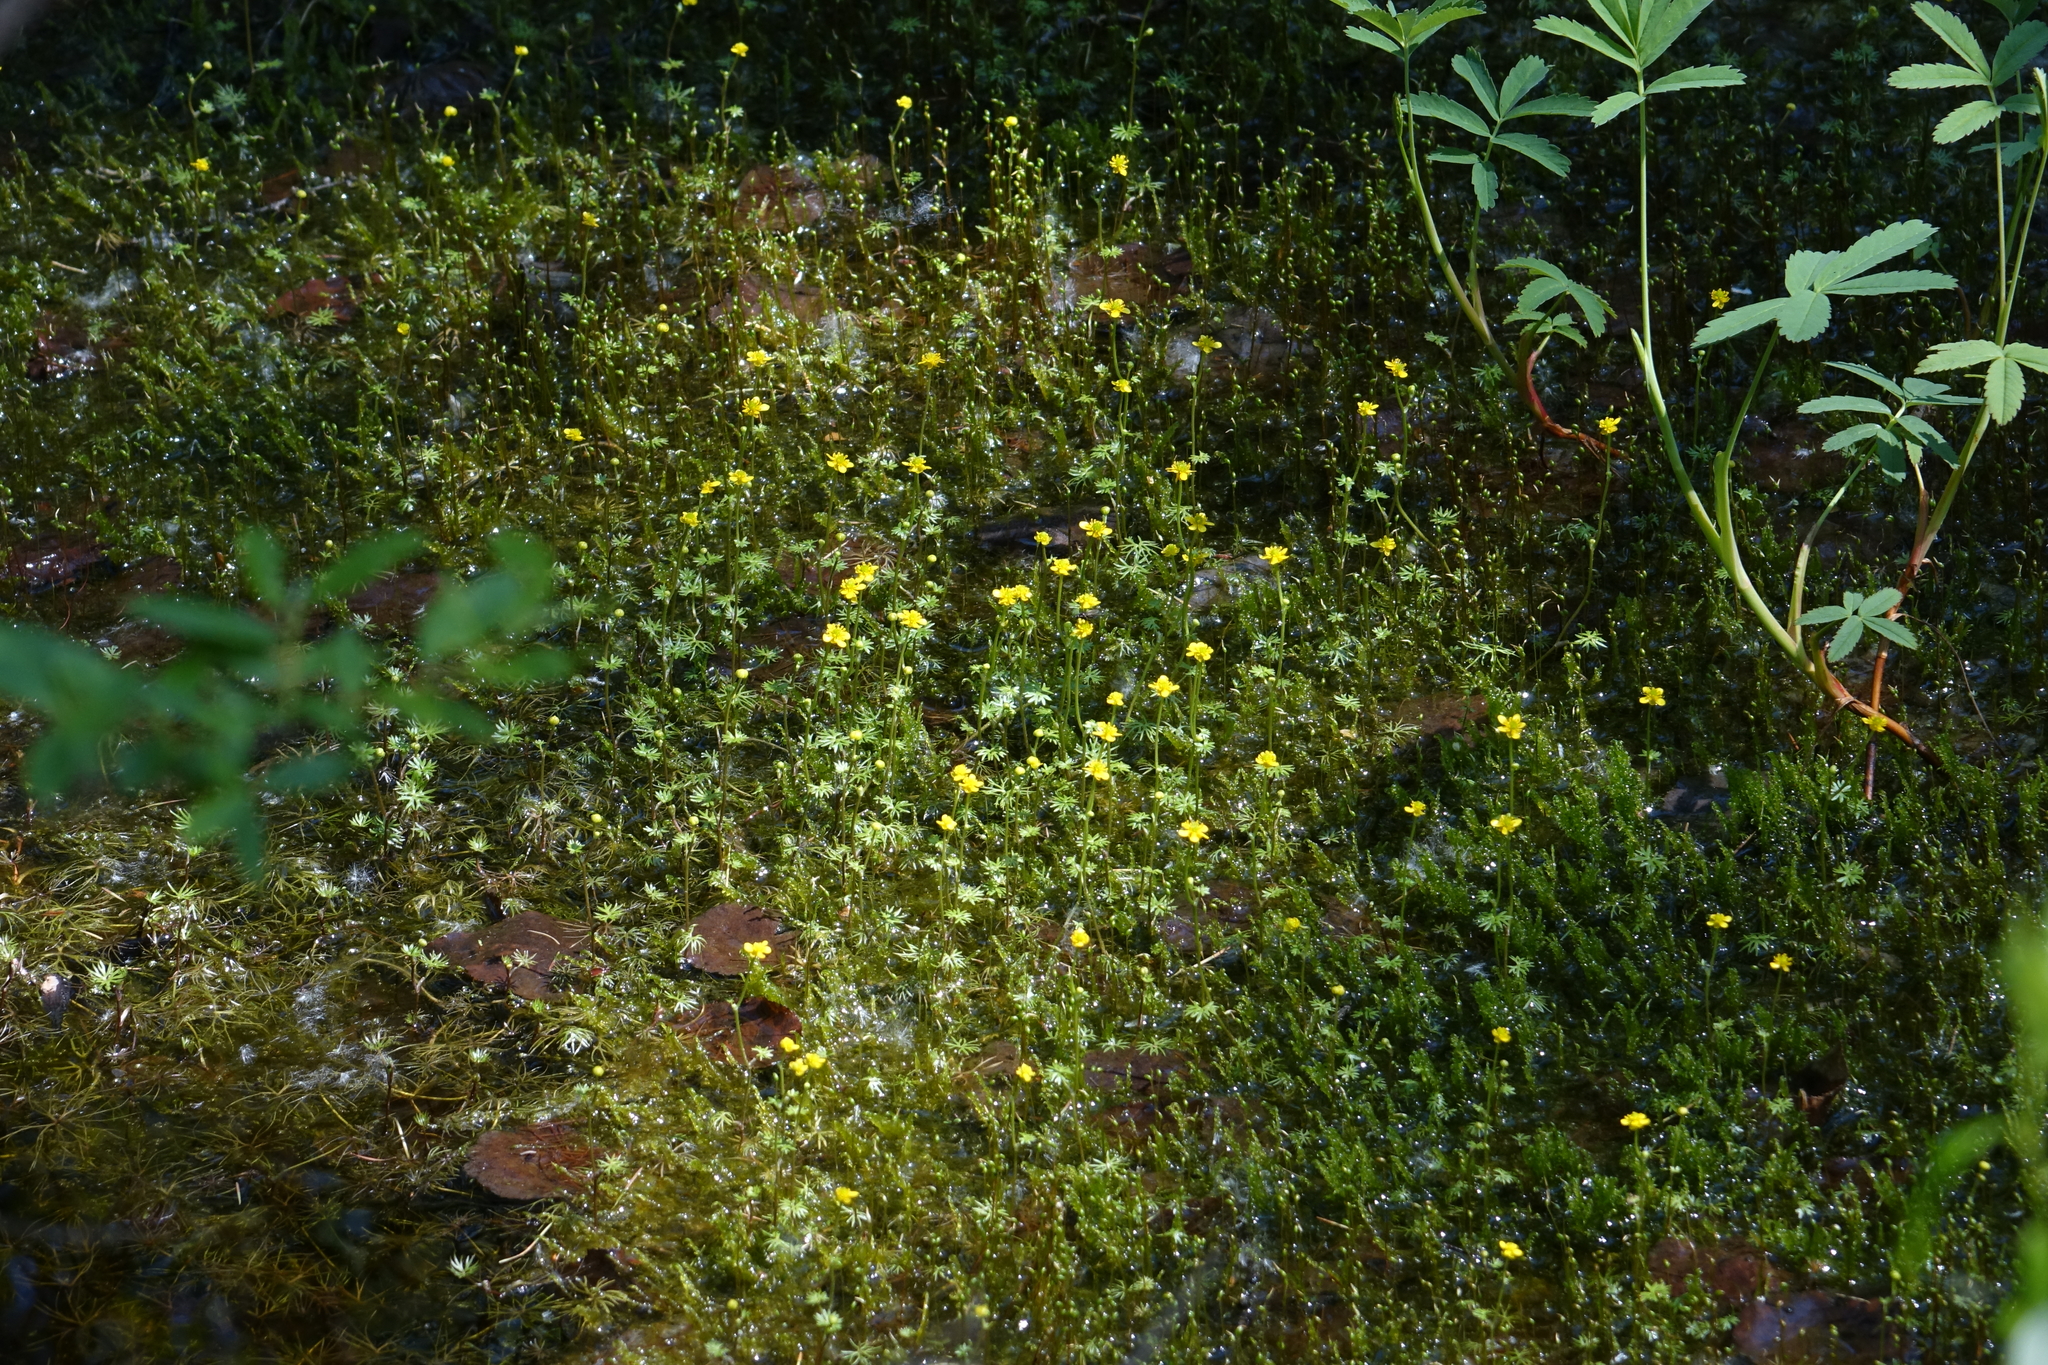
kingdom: Plantae
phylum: Tracheophyta
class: Magnoliopsida
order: Ranunculales
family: Ranunculaceae
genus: Ranunculus
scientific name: Ranunculus gmelinii
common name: Gmelin's buttercup
